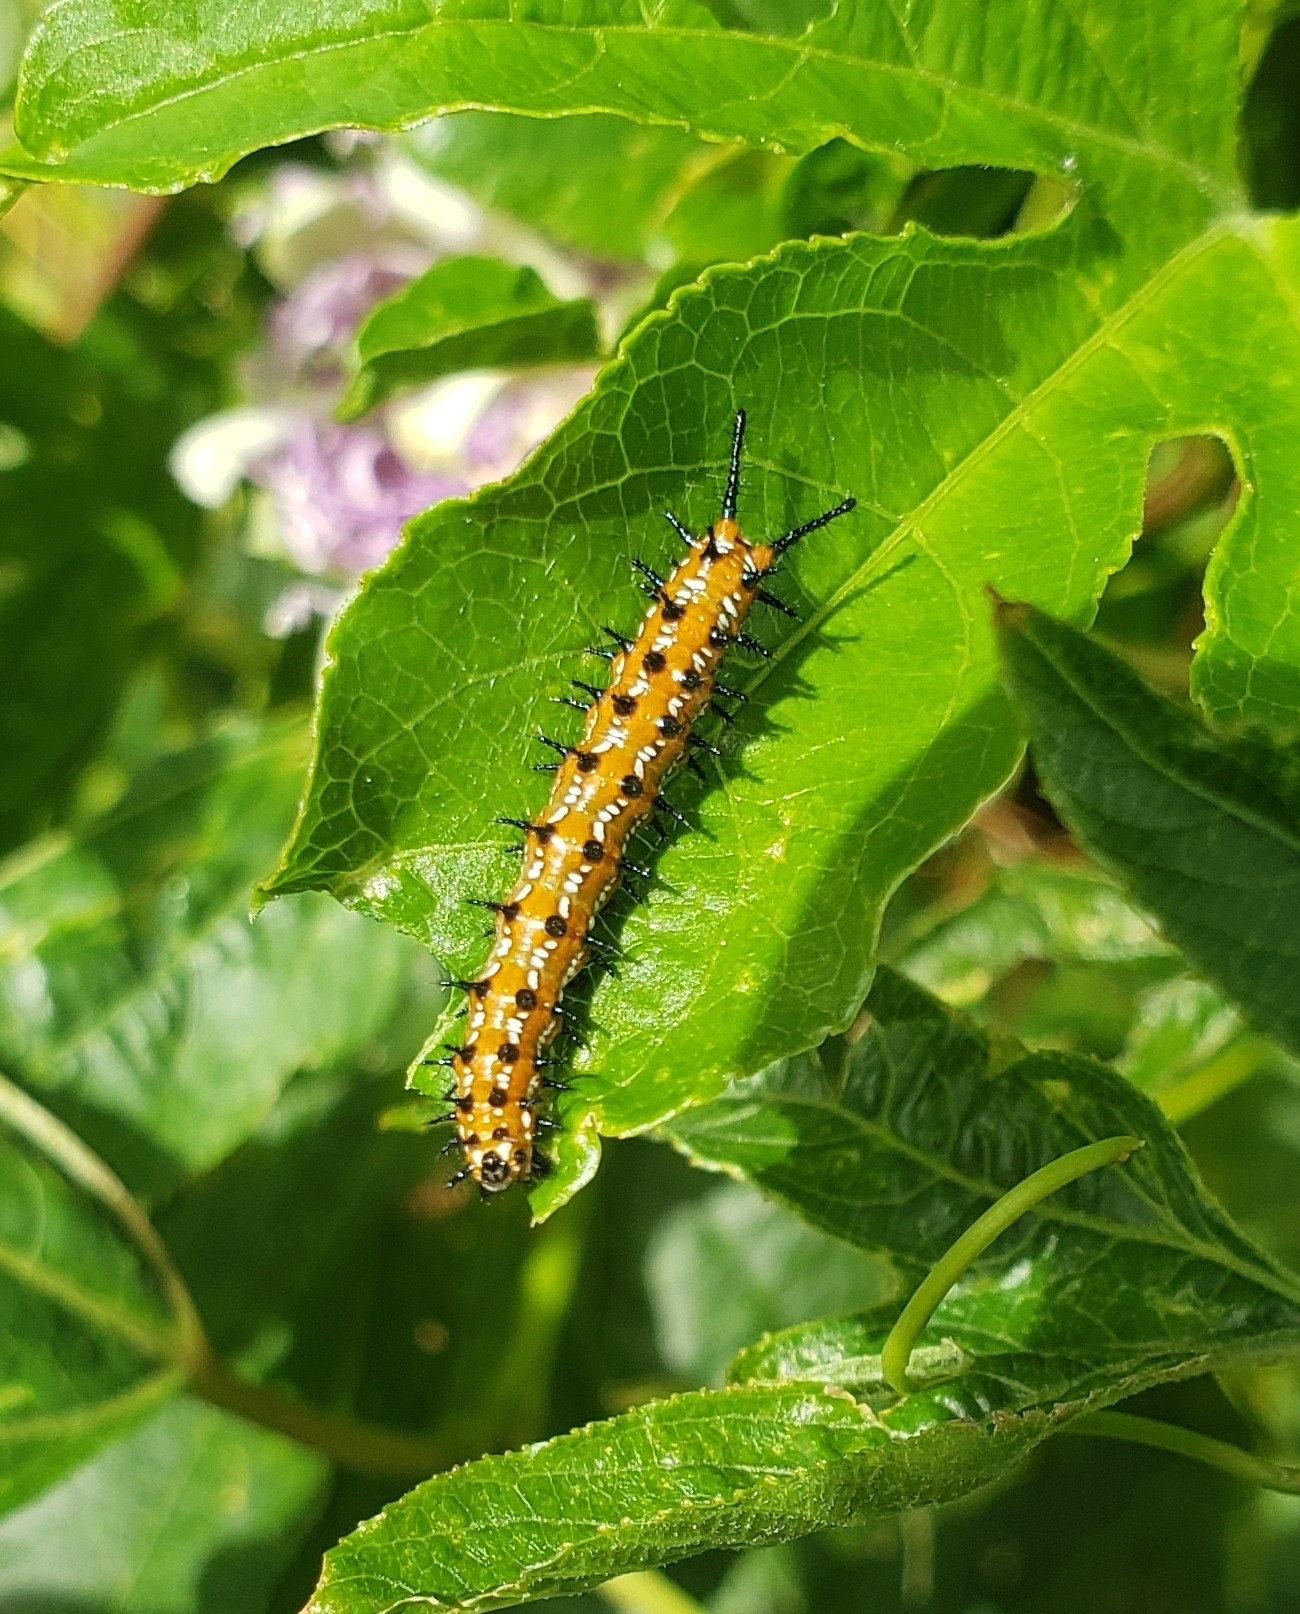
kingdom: Animalia
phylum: Arthropoda
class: Insecta
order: Lepidoptera
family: Nymphalidae
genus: Euptoieta
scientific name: Euptoieta claudia
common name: Variegated fritillary
